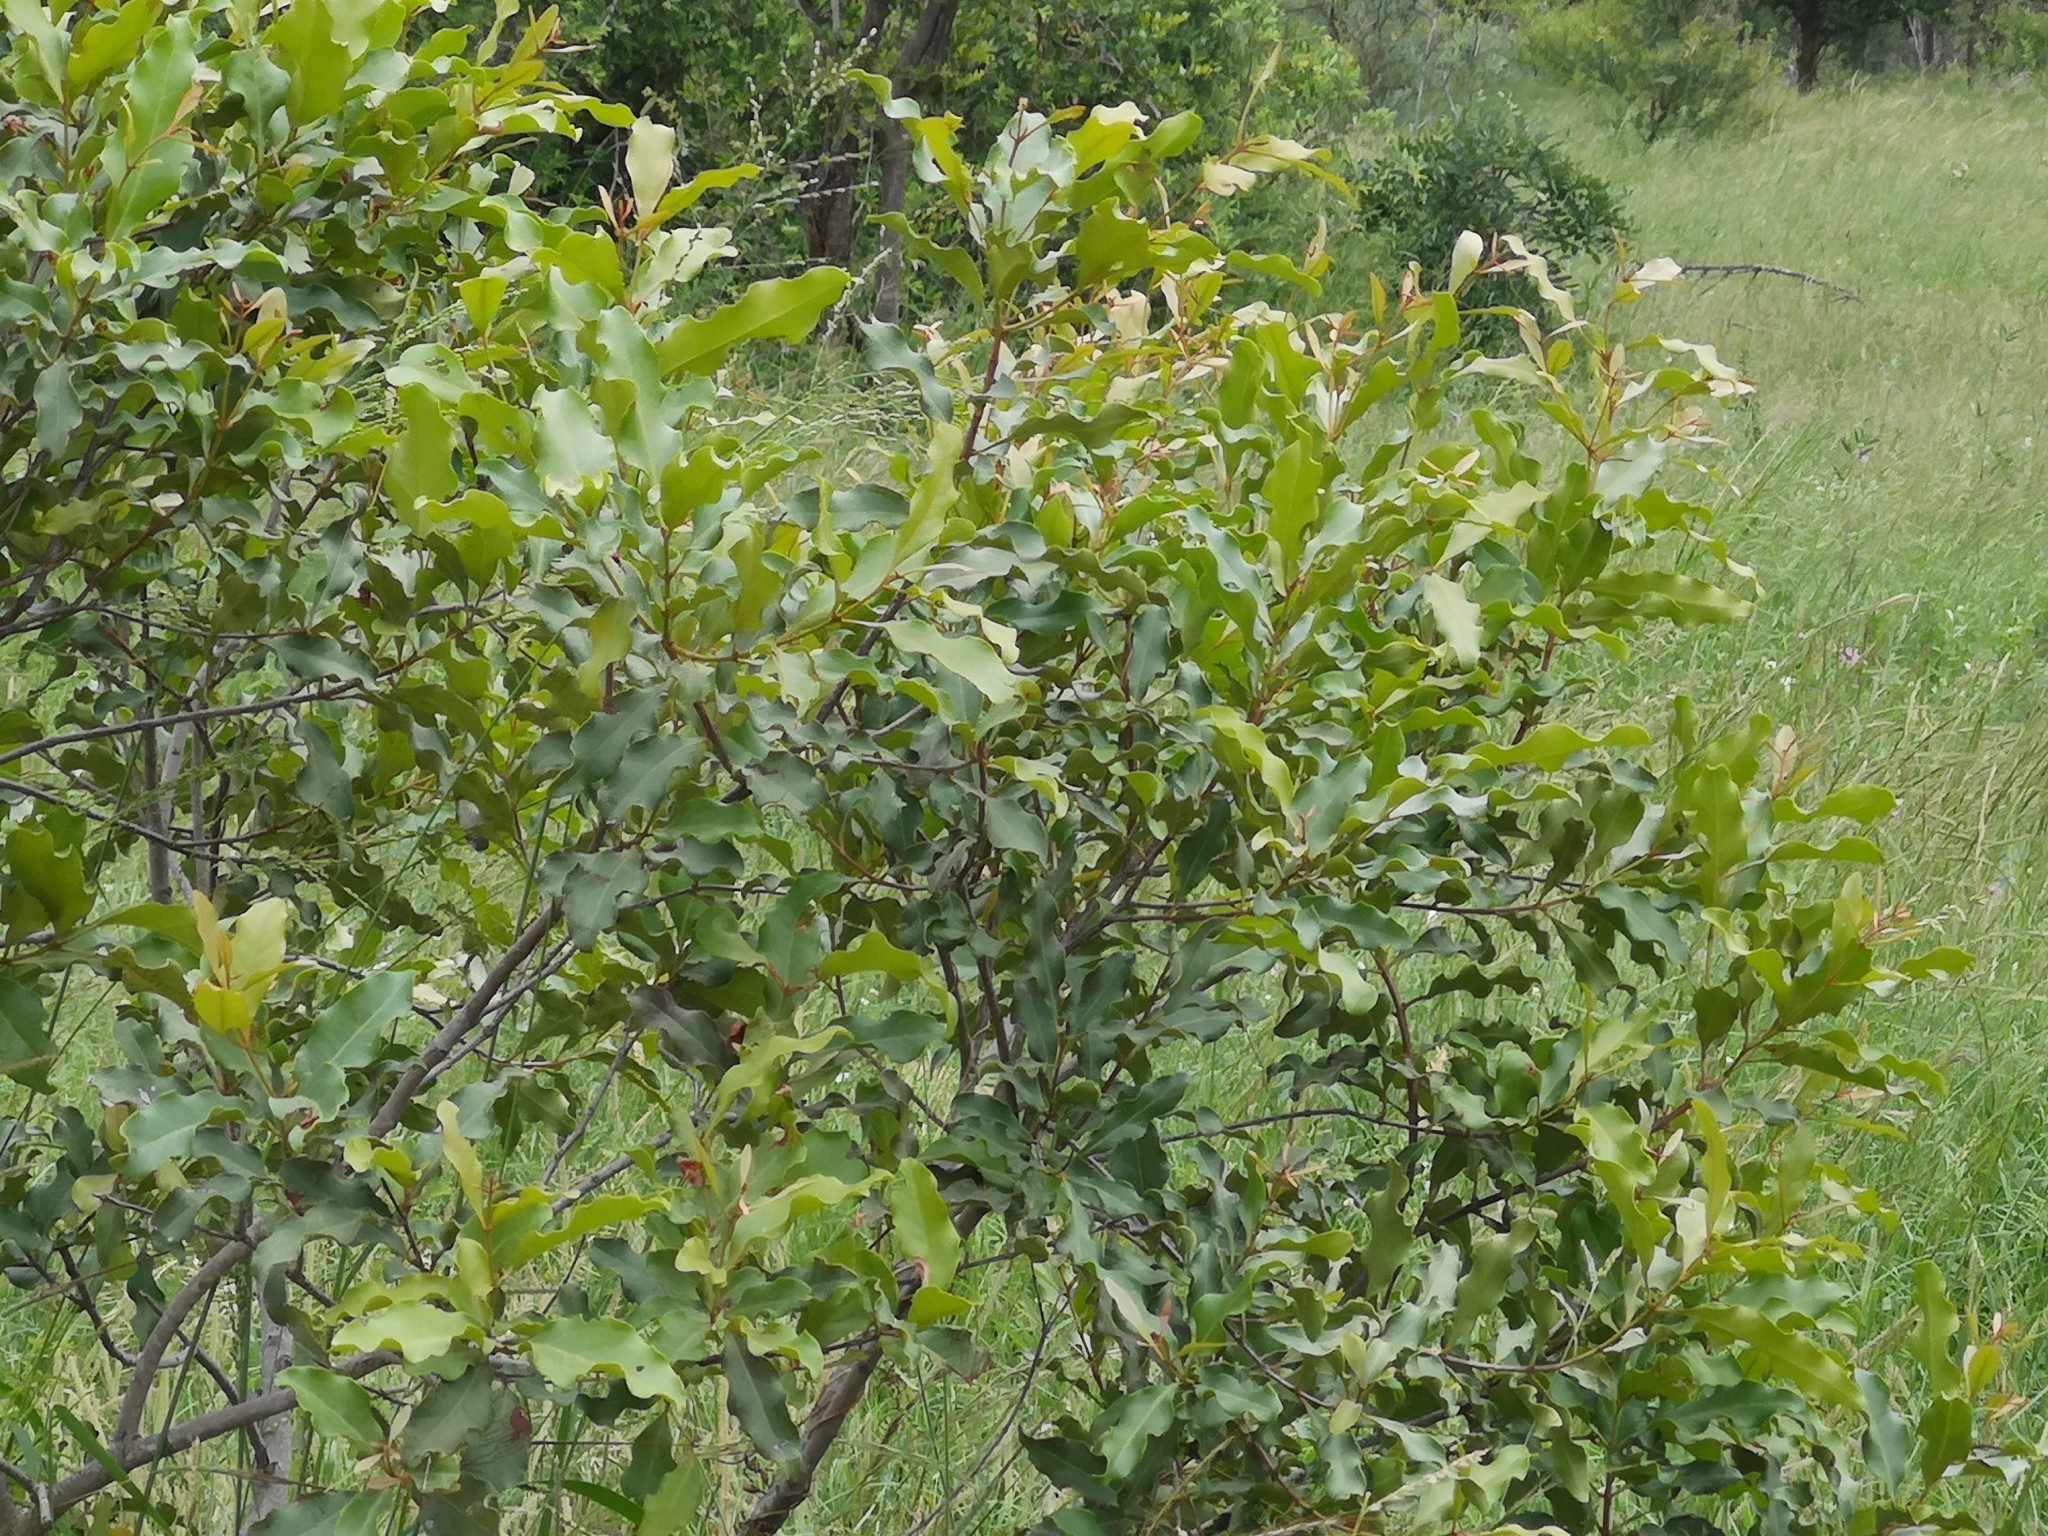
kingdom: Plantae
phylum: Tracheophyta
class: Magnoliopsida
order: Ericales
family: Ebenaceae
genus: Euclea
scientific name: Euclea divinorum
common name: Diamond-leaved euclea
